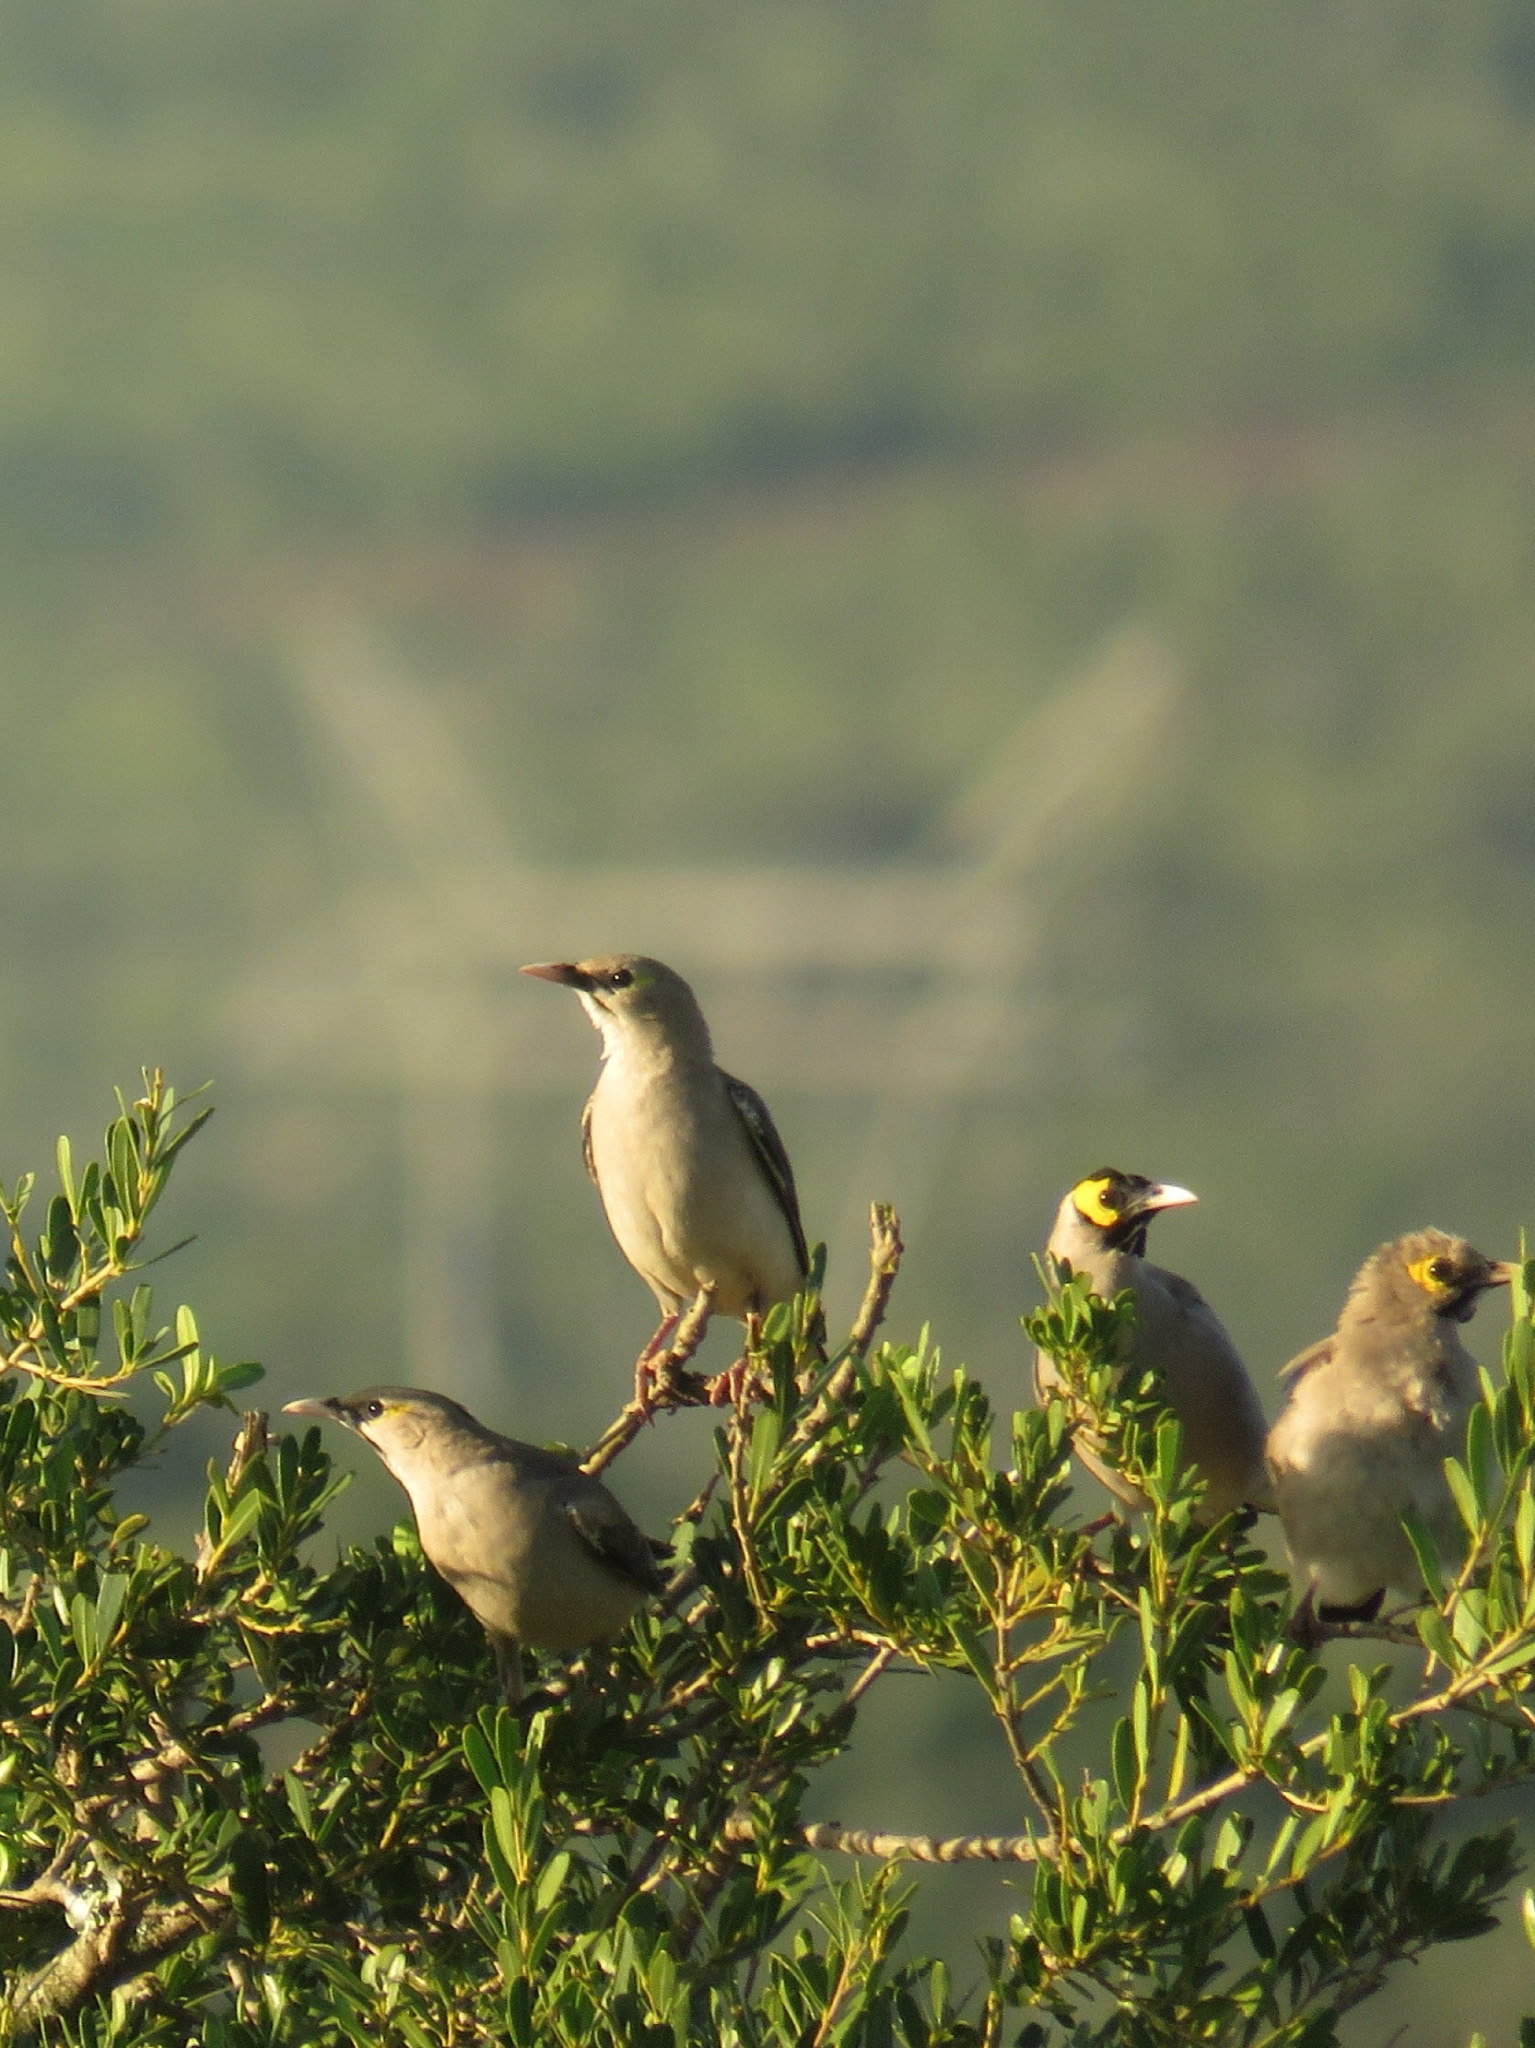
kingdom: Animalia
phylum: Chordata
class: Aves
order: Passeriformes
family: Sturnidae
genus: Creatophora
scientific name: Creatophora cinerea
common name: Wattled starling
